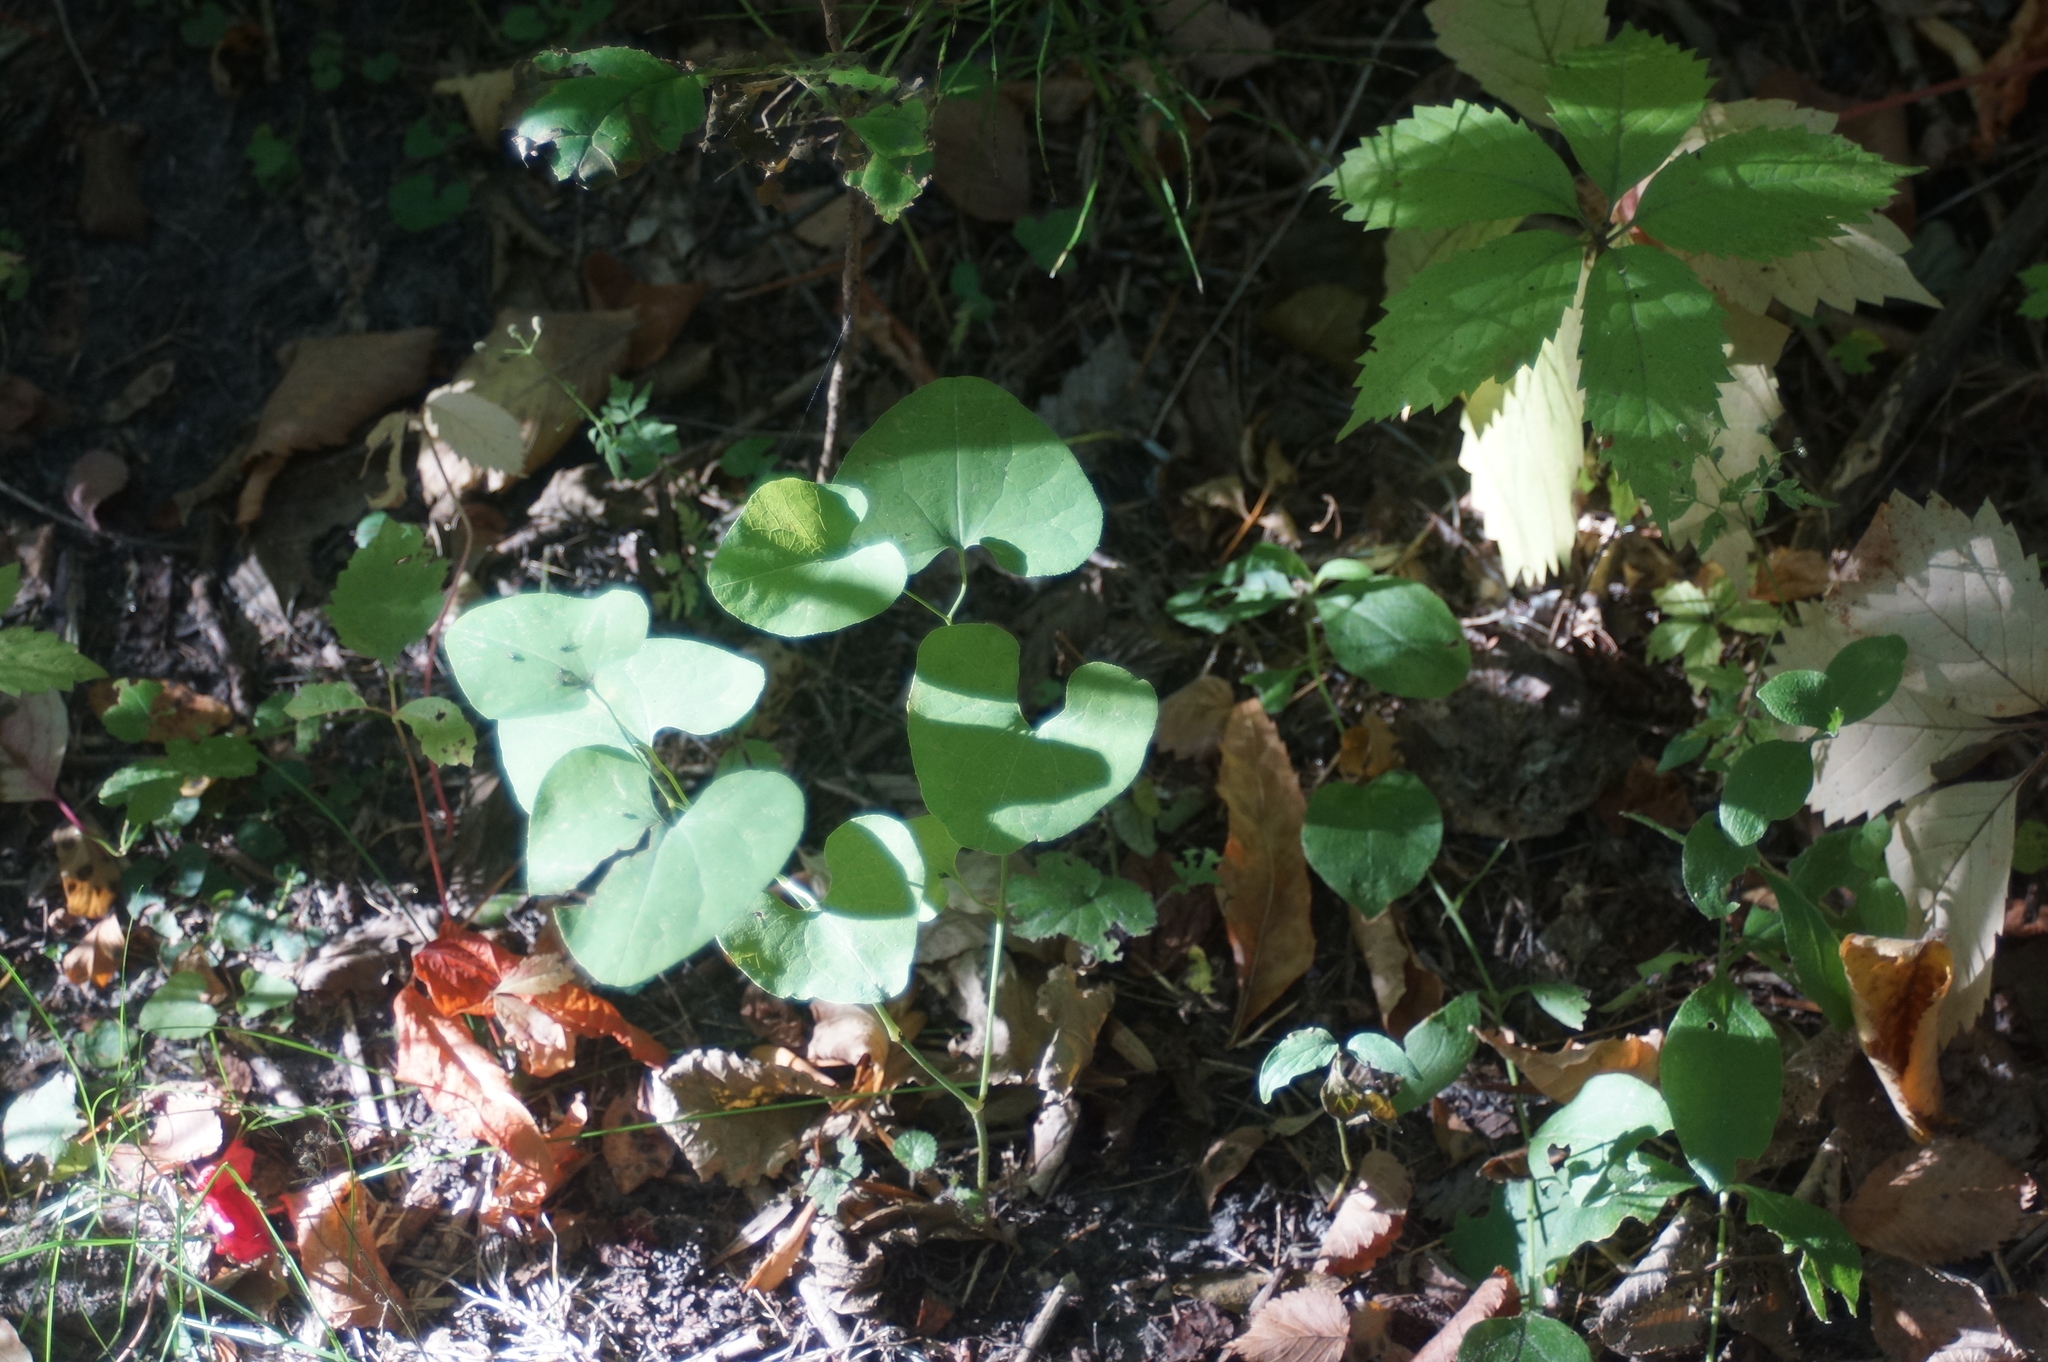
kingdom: Plantae
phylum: Tracheophyta
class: Magnoliopsida
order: Piperales
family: Aristolochiaceae
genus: Aristolochia
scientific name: Aristolochia clematitis
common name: Birthwort
